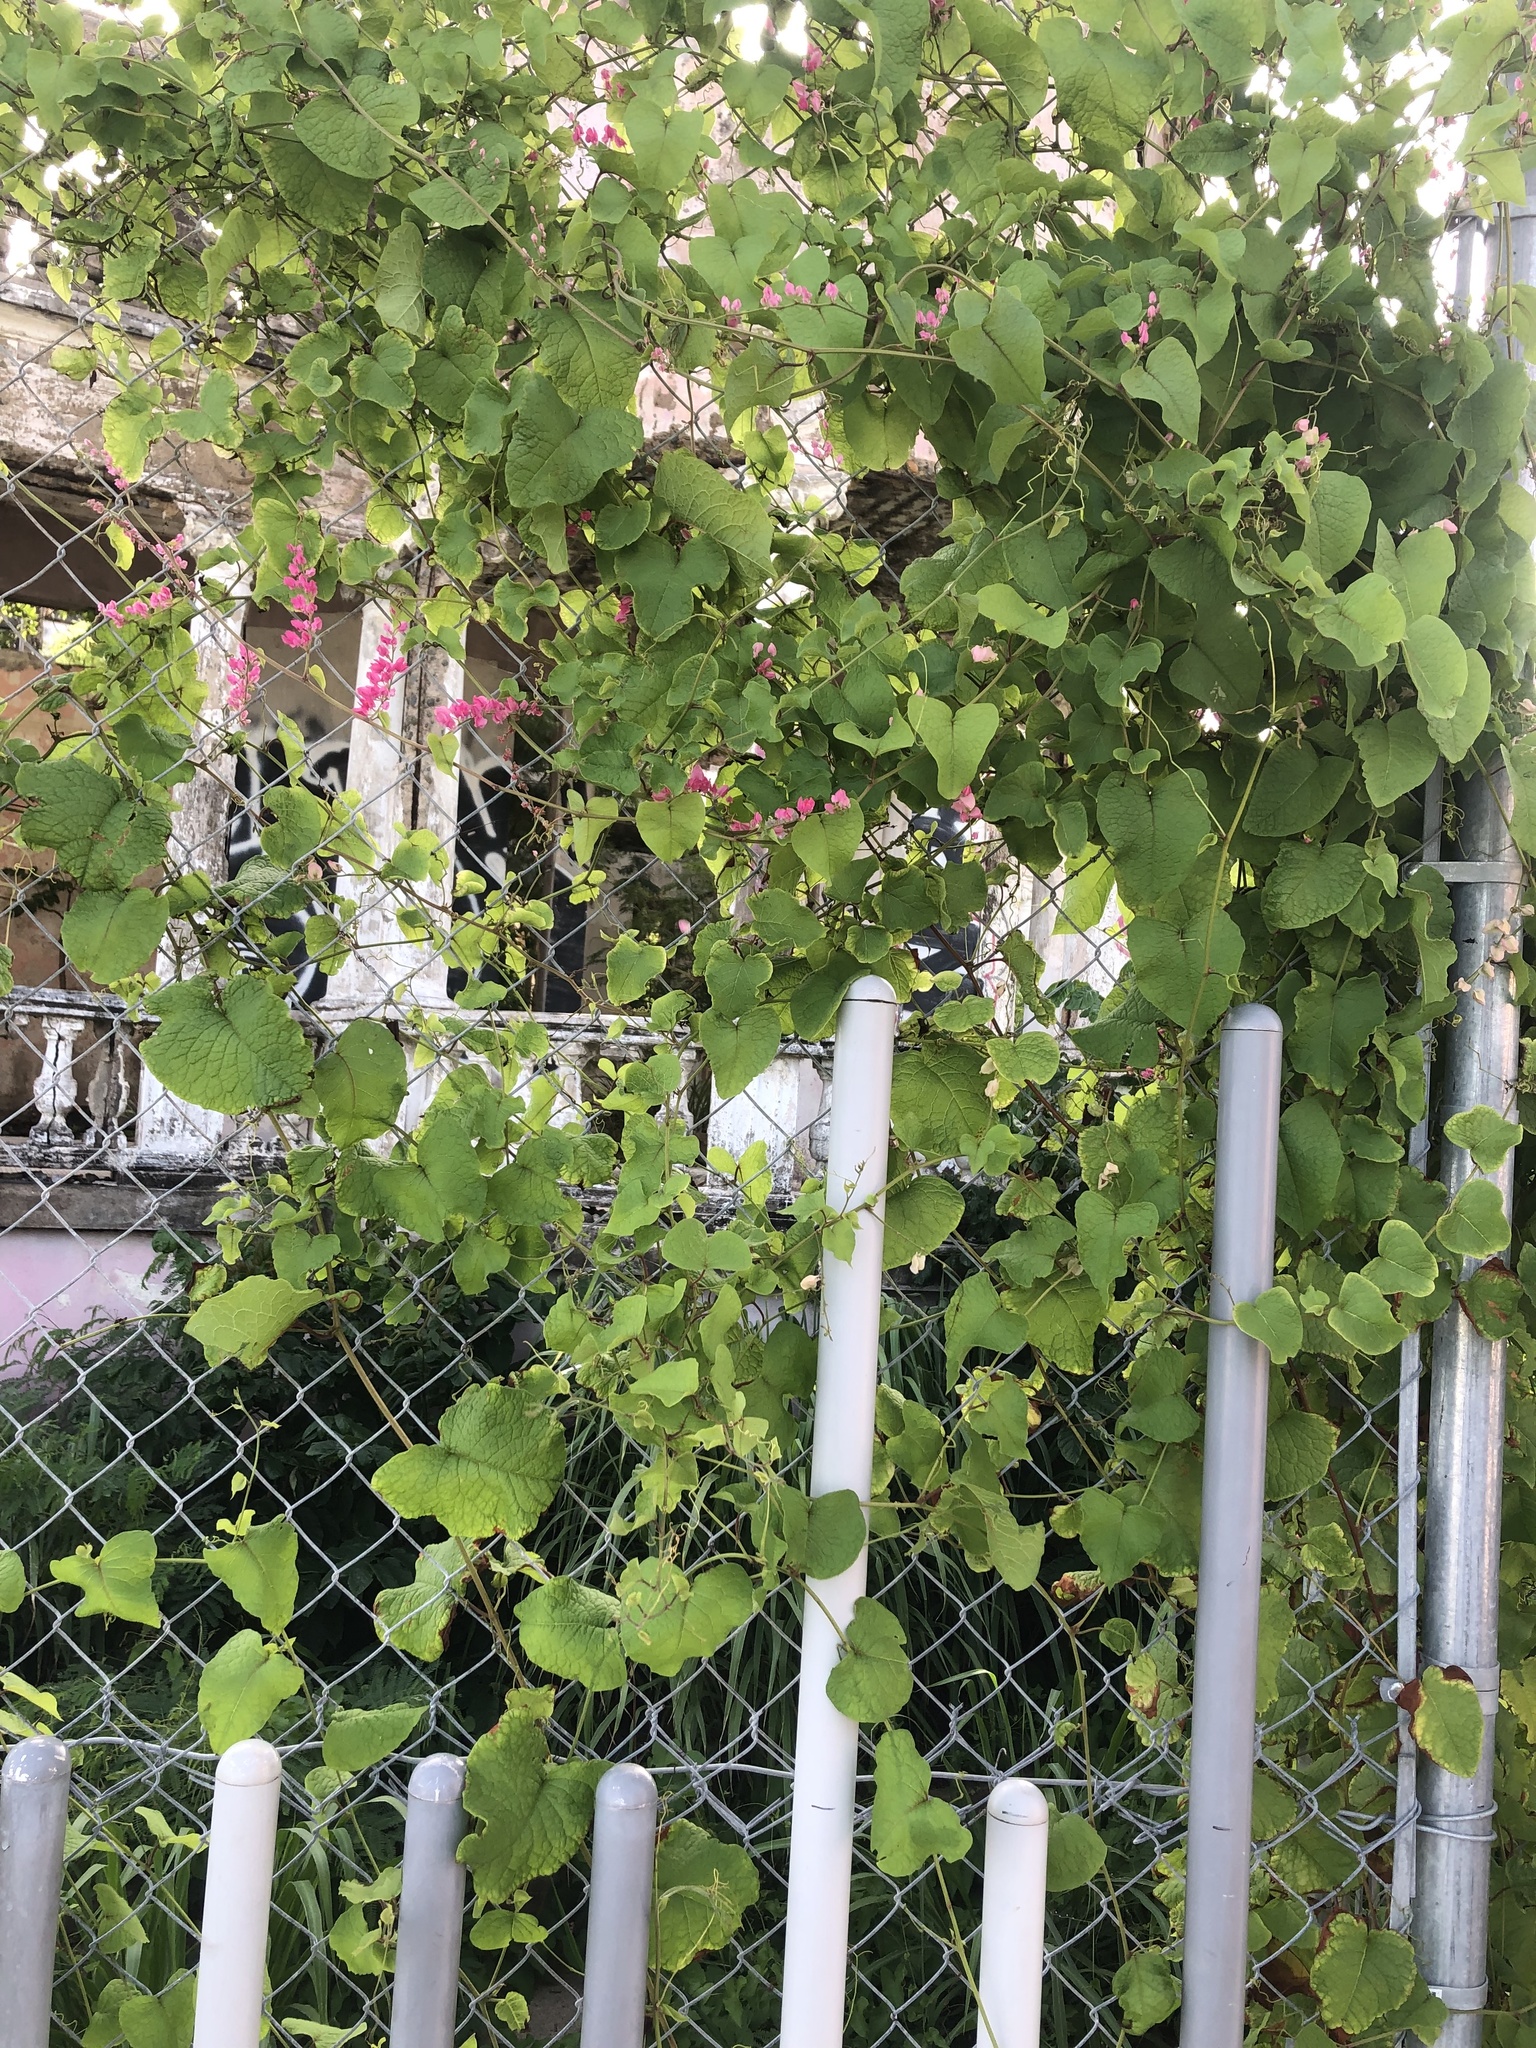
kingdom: Plantae
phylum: Tracheophyta
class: Magnoliopsida
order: Caryophyllales
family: Polygonaceae
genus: Antigonon
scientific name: Antigonon leptopus
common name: Coral vine
